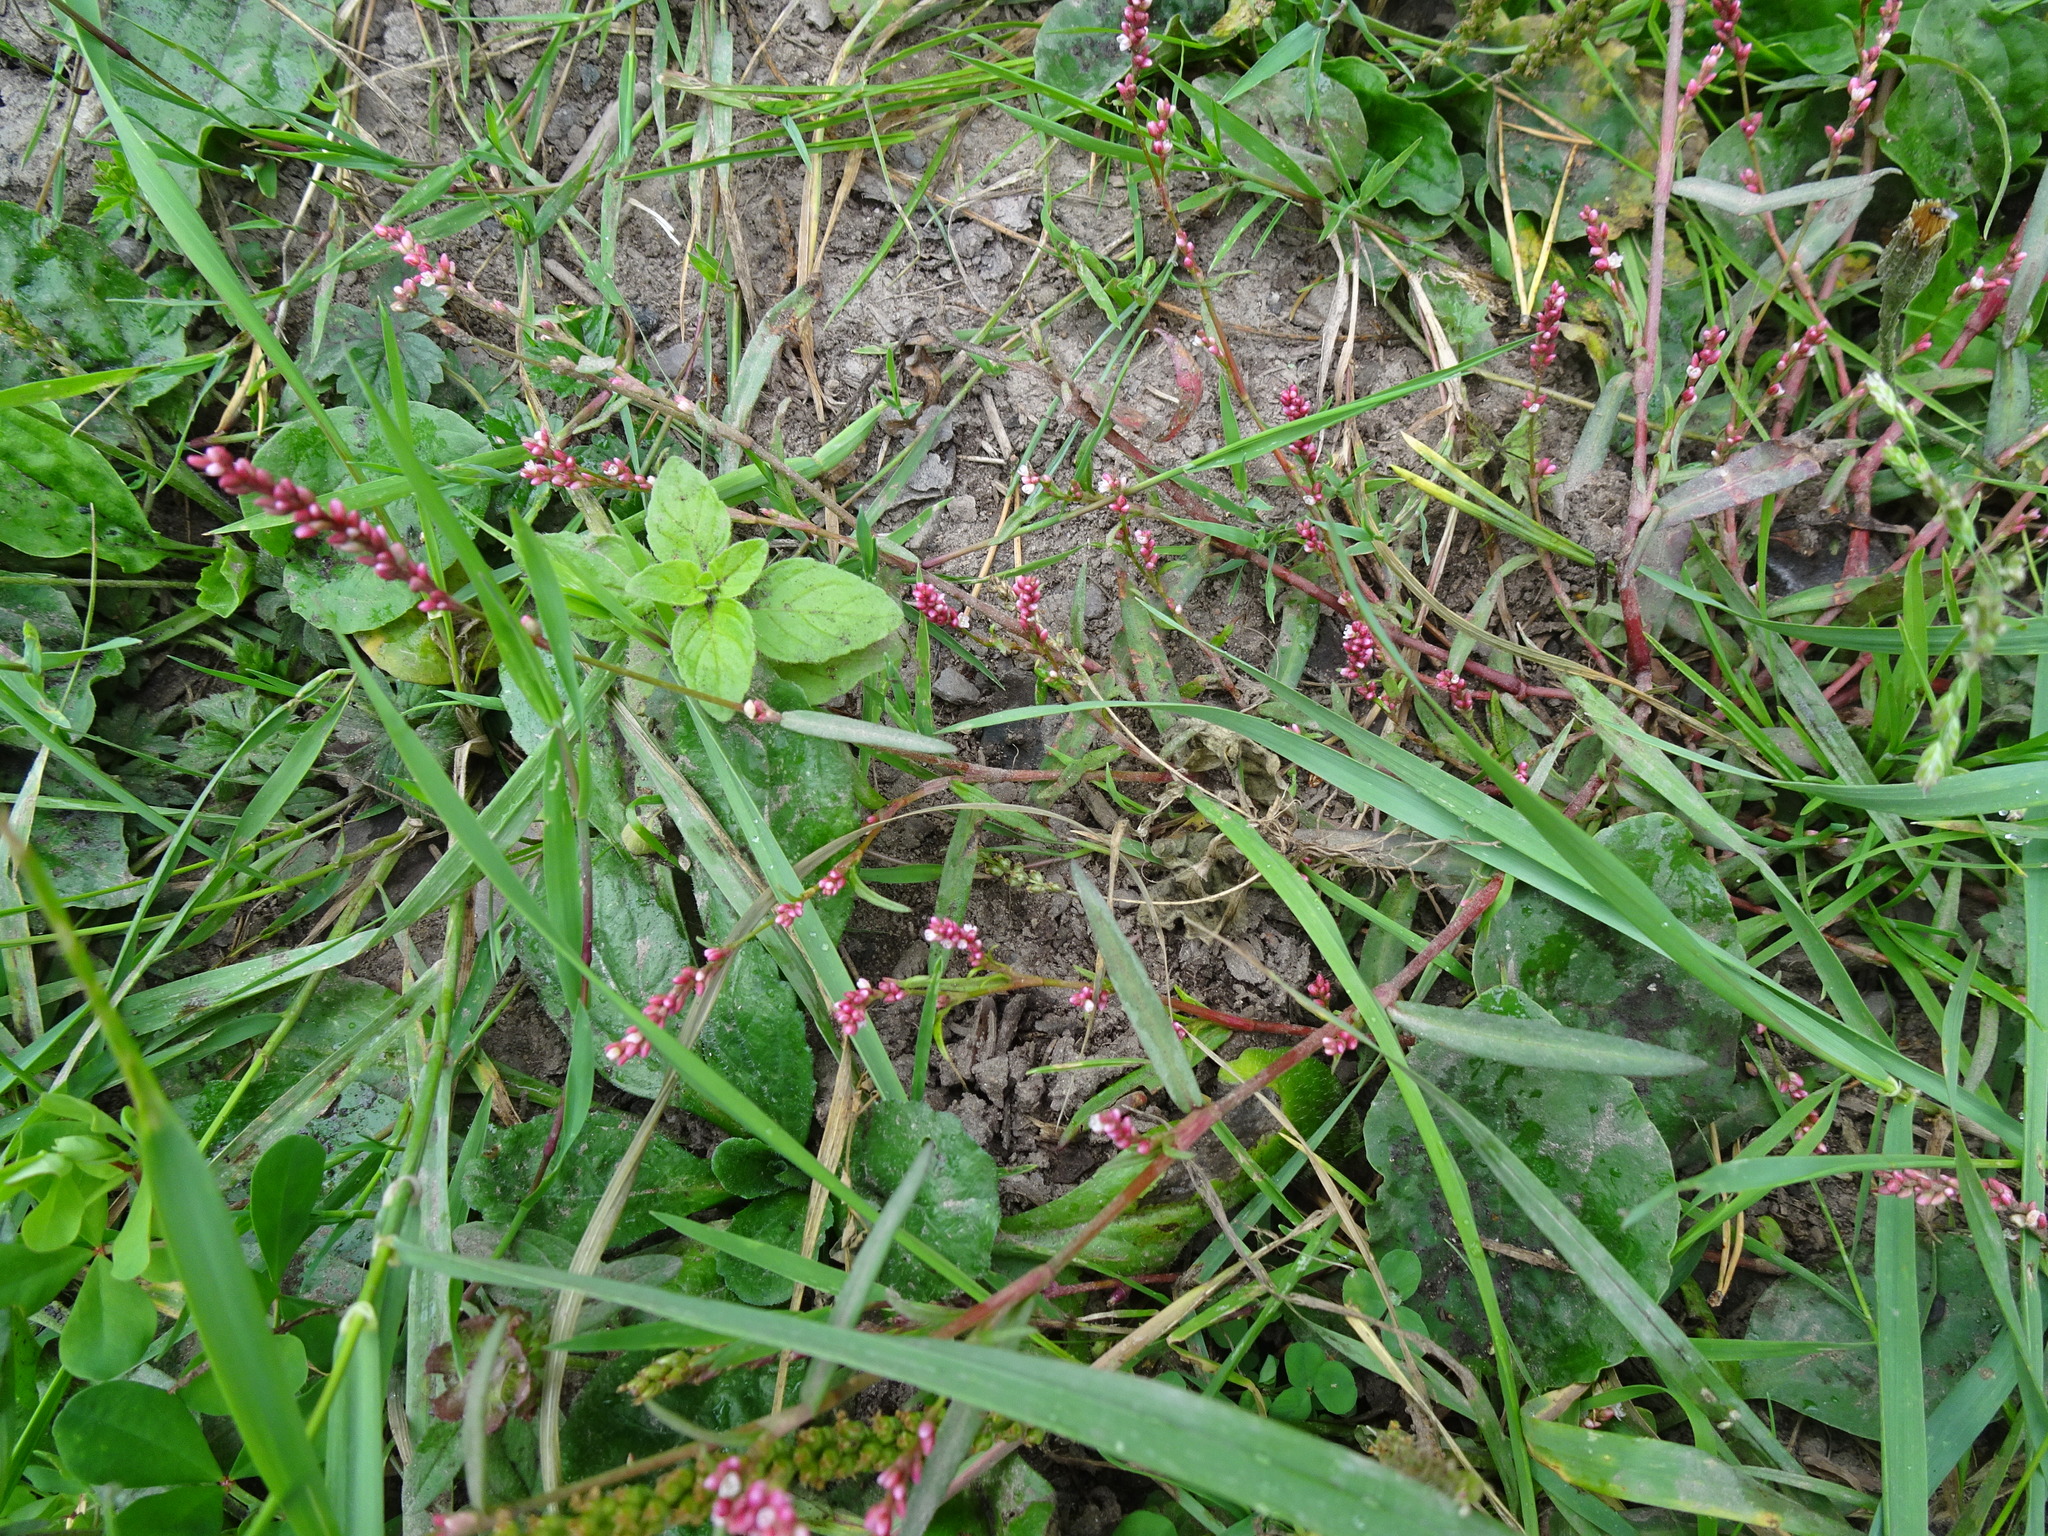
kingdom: Plantae
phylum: Tracheophyta
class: Magnoliopsida
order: Caryophyllales
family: Polygonaceae
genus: Persicaria
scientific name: Persicaria minor
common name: Small water-pepper
